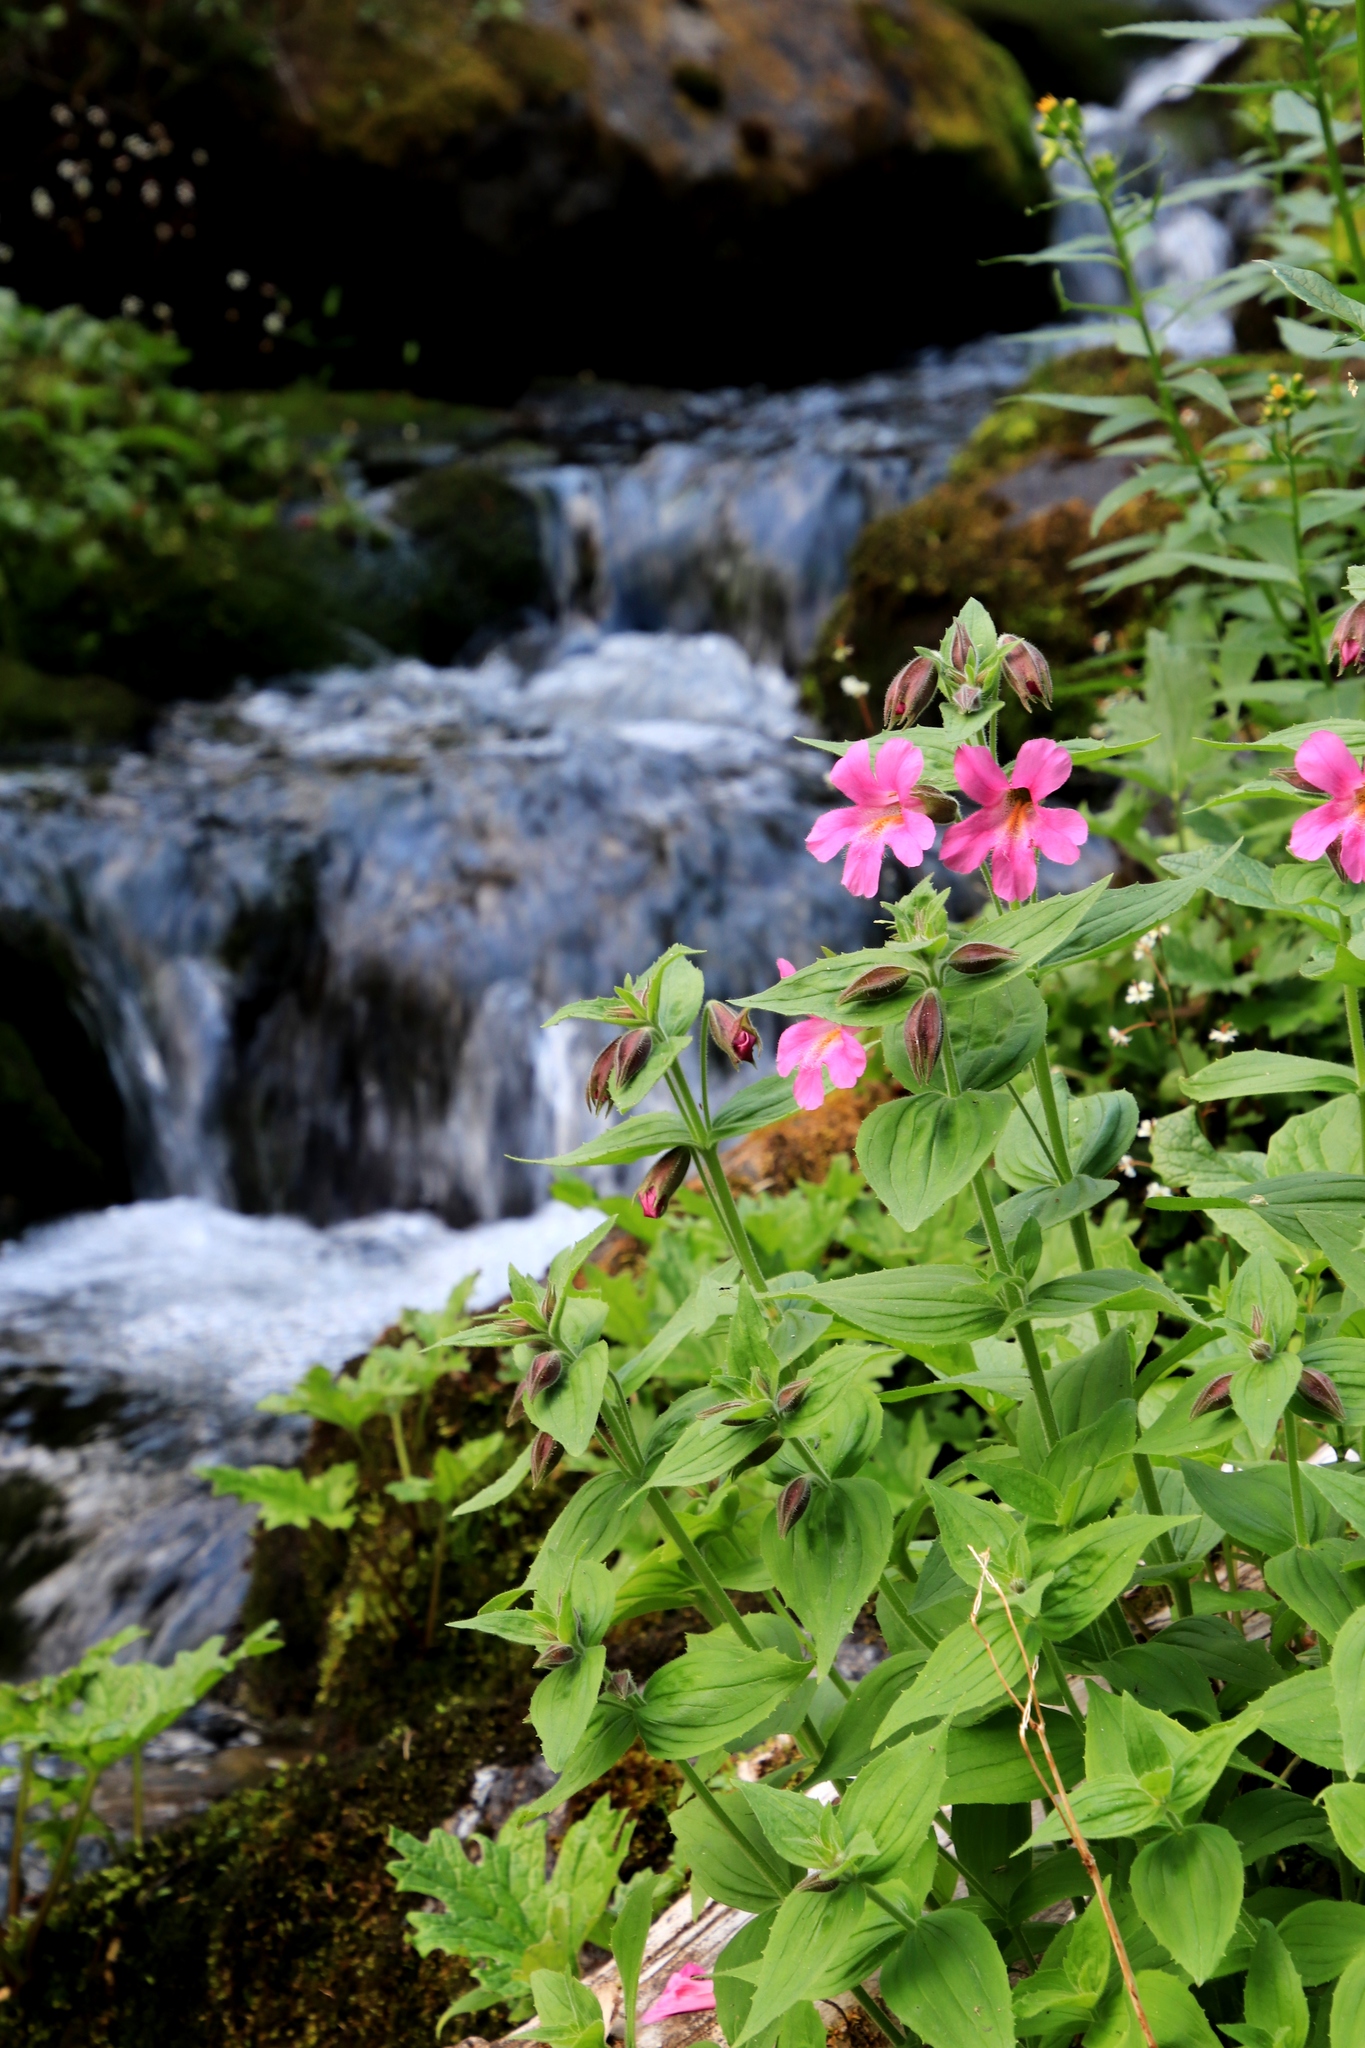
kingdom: Plantae
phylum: Tracheophyta
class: Magnoliopsida
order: Lamiales
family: Phrymaceae
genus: Erythranthe
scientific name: Erythranthe lewisii
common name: Lewis's monkey-flower
